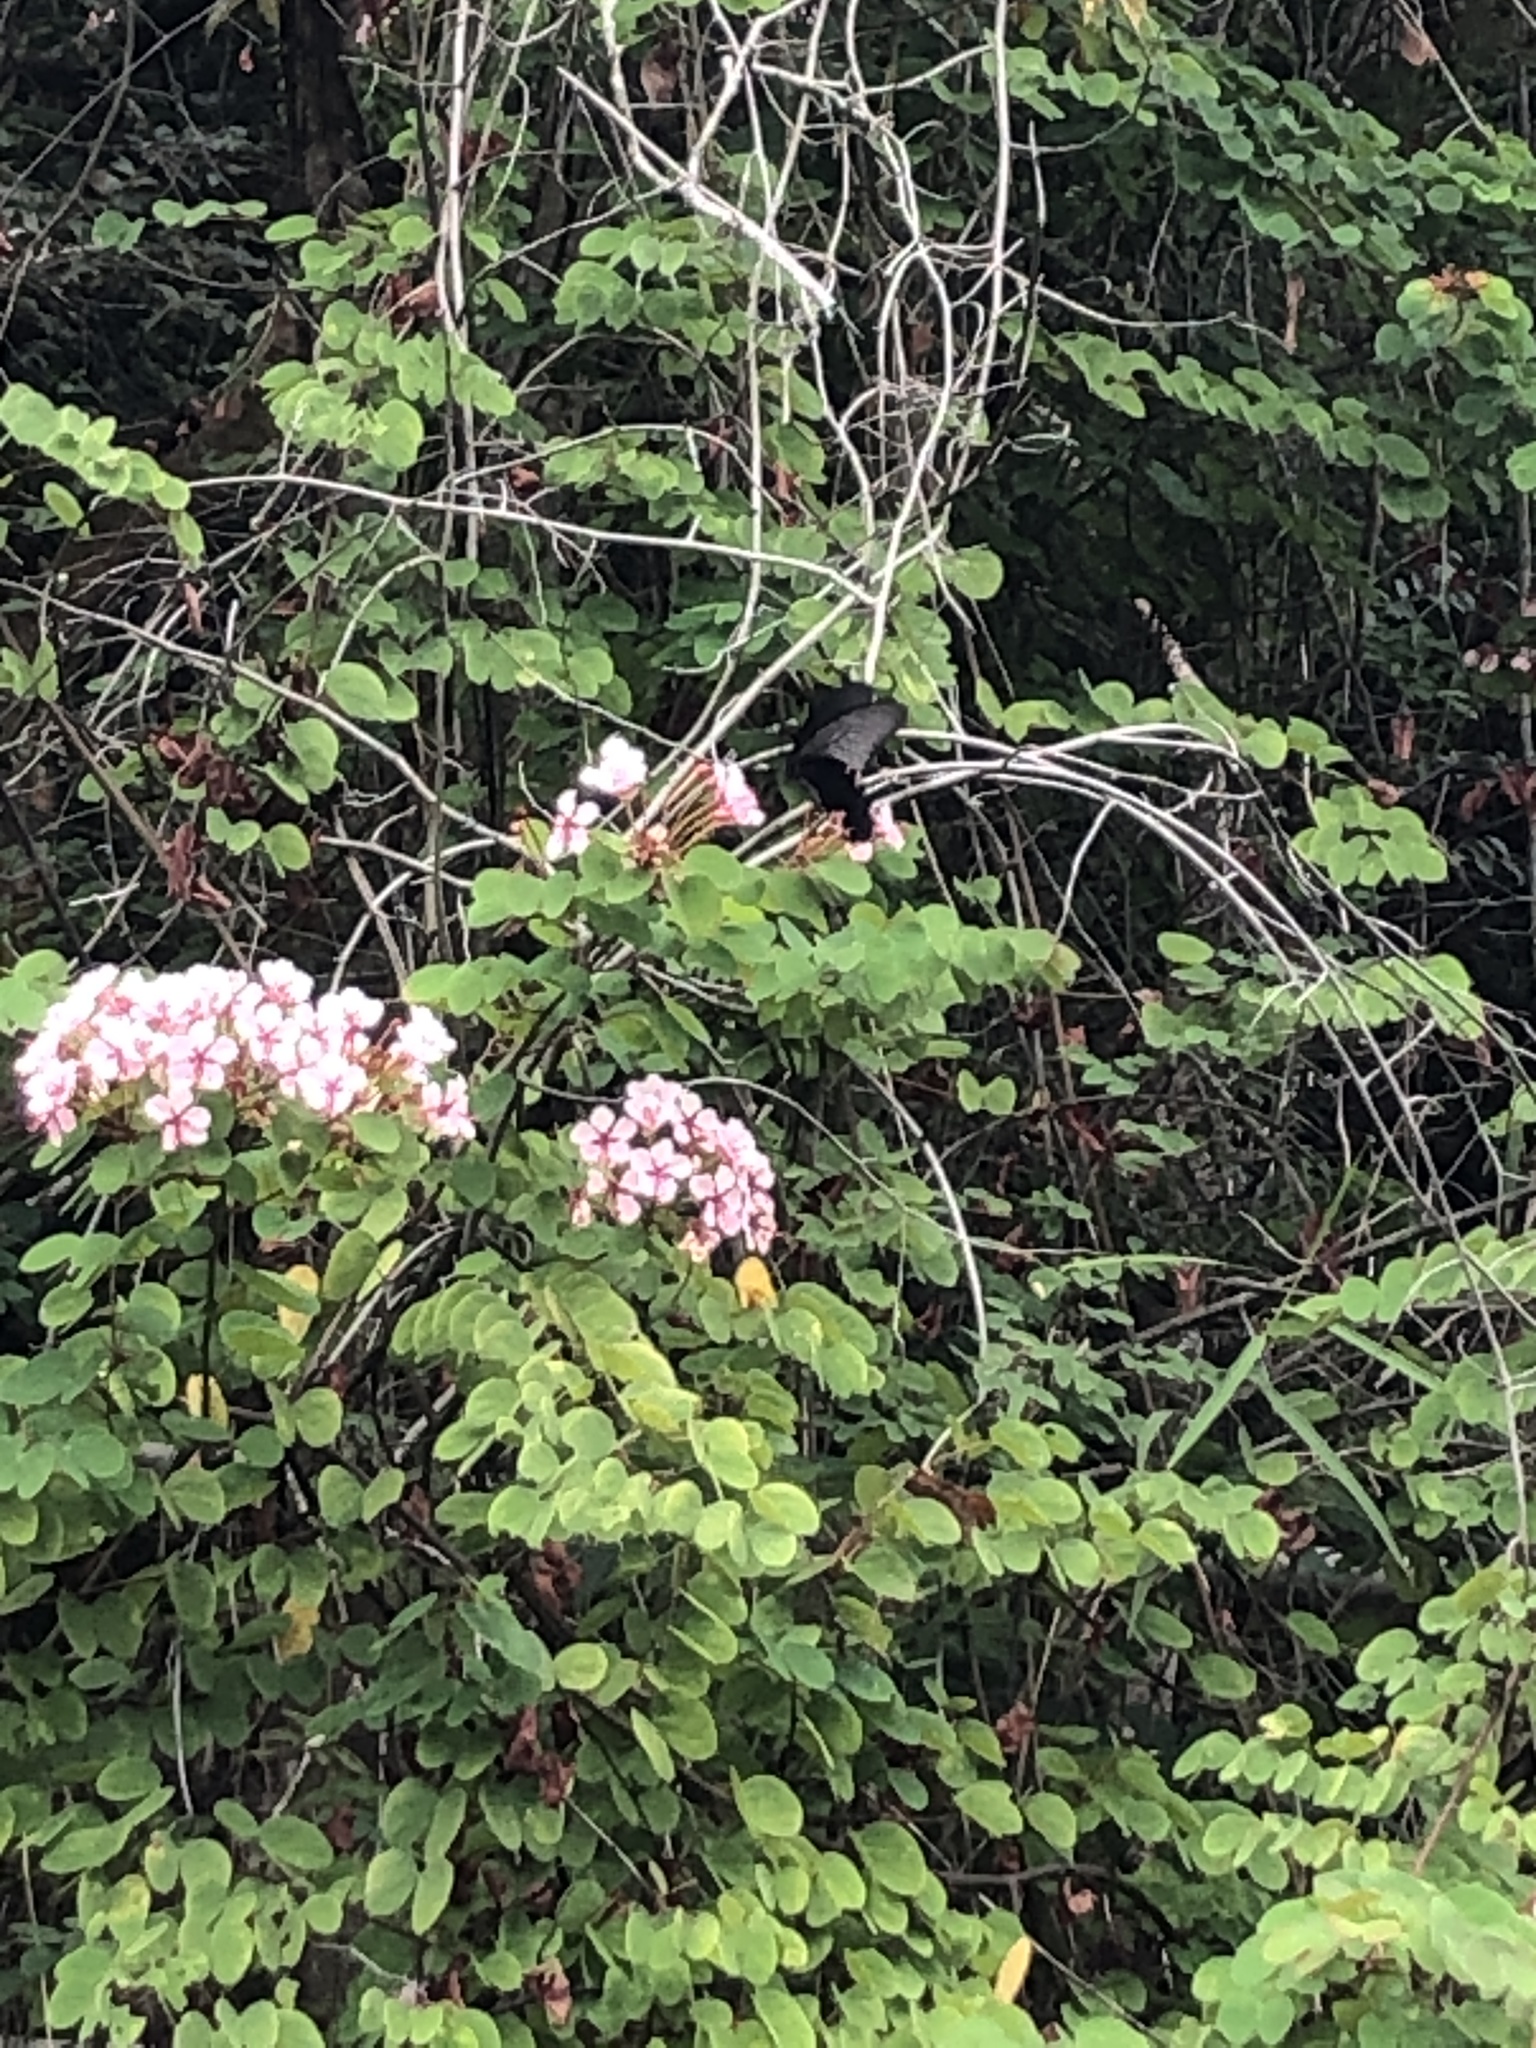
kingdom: Animalia
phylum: Arthropoda
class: Insecta
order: Lepidoptera
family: Papilionidae
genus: Papilio
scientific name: Papilio protenor
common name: Spangle
